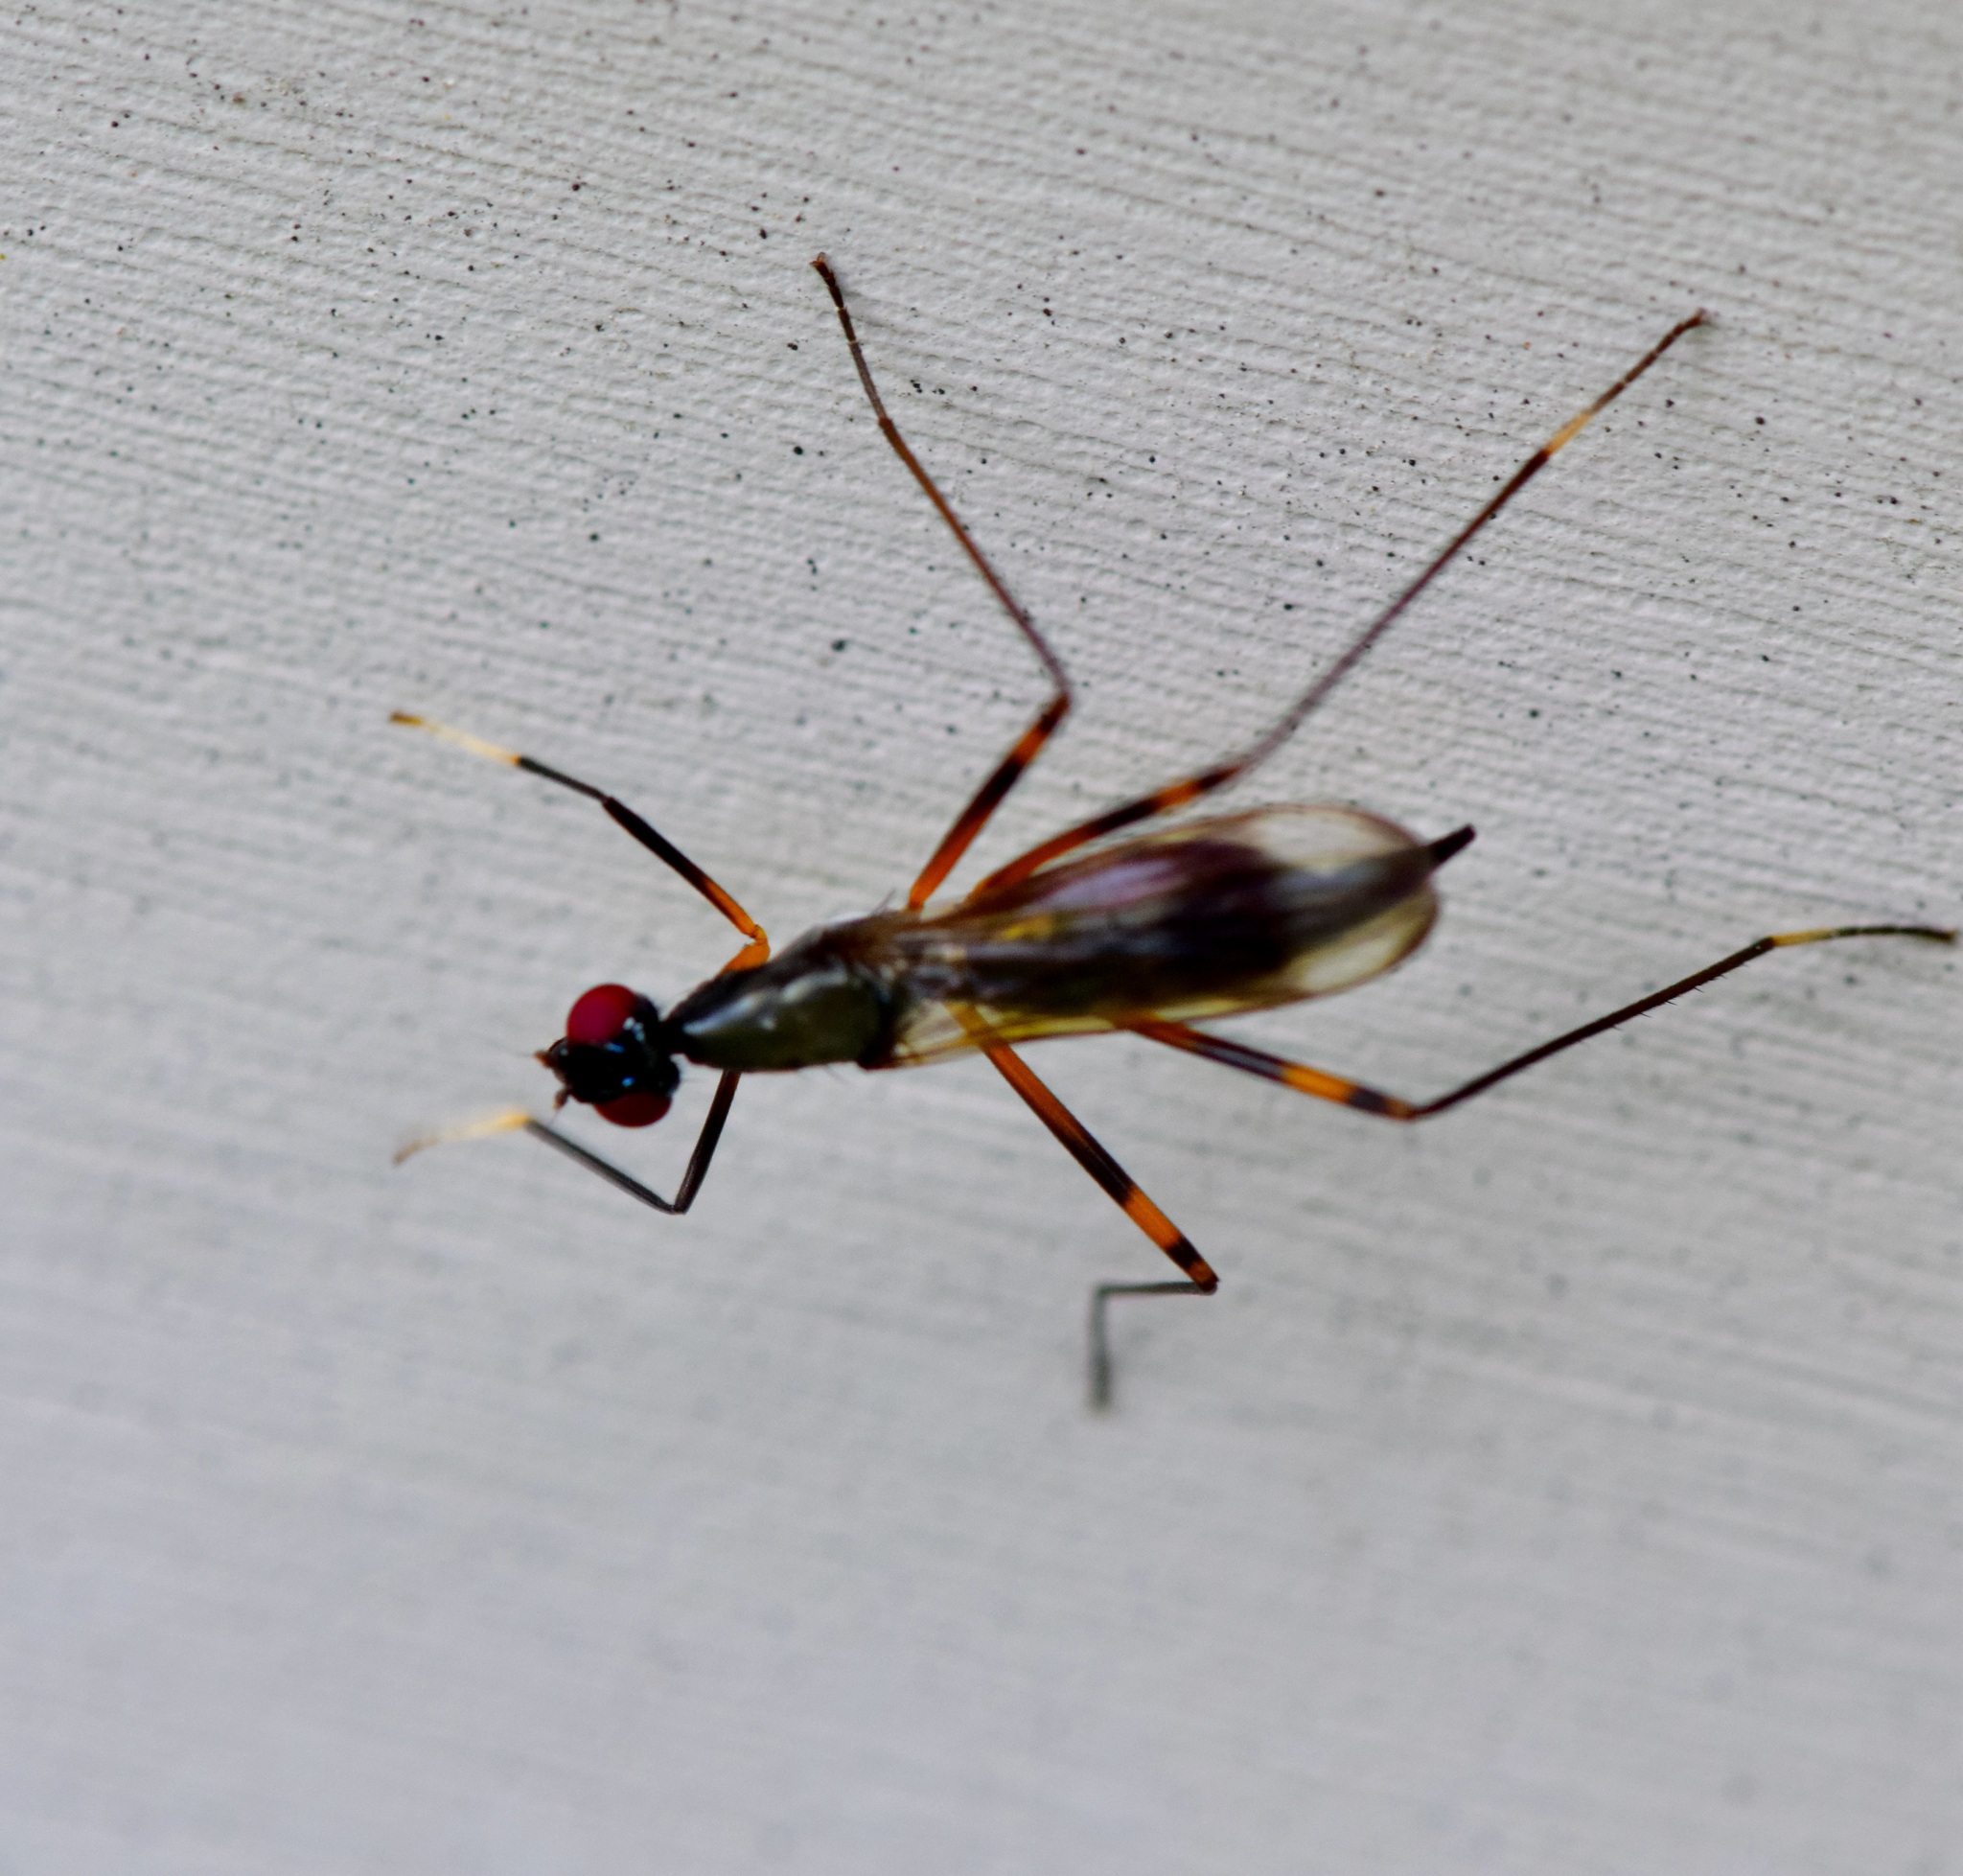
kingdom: Animalia
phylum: Arthropoda
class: Insecta
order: Diptera
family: Micropezidae
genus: Rainieria
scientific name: Rainieria antennaepes
